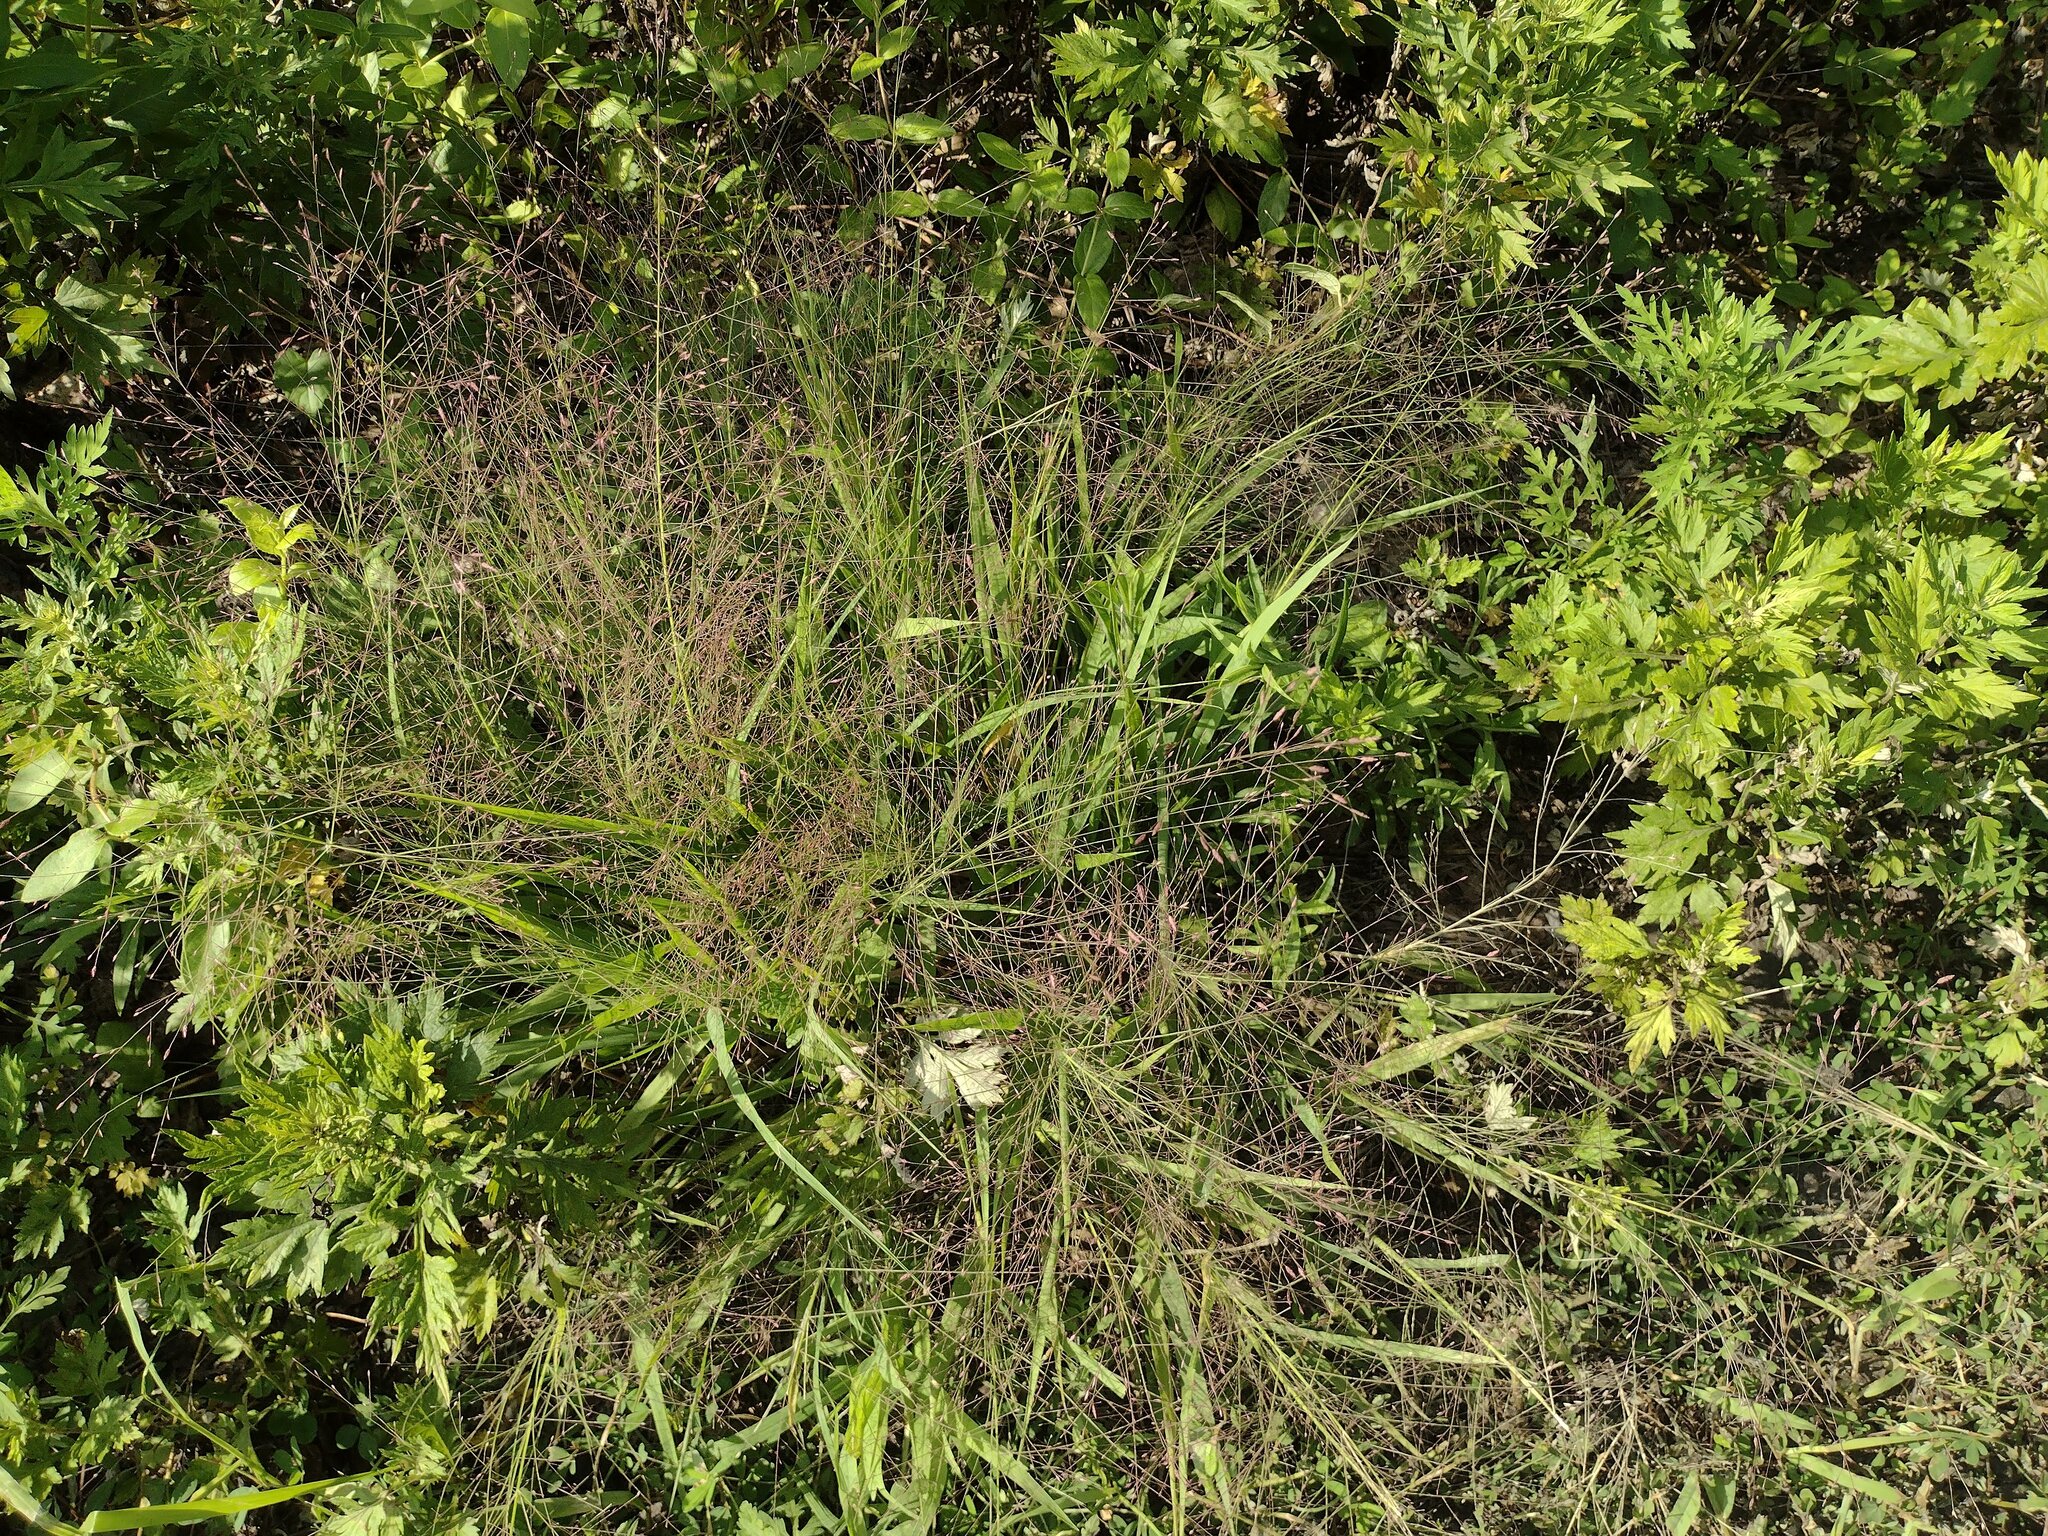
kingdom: Plantae
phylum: Tracheophyta
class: Liliopsida
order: Poales
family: Poaceae
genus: Eragrostis
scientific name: Eragrostis spectabilis
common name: Petticoat-climber
